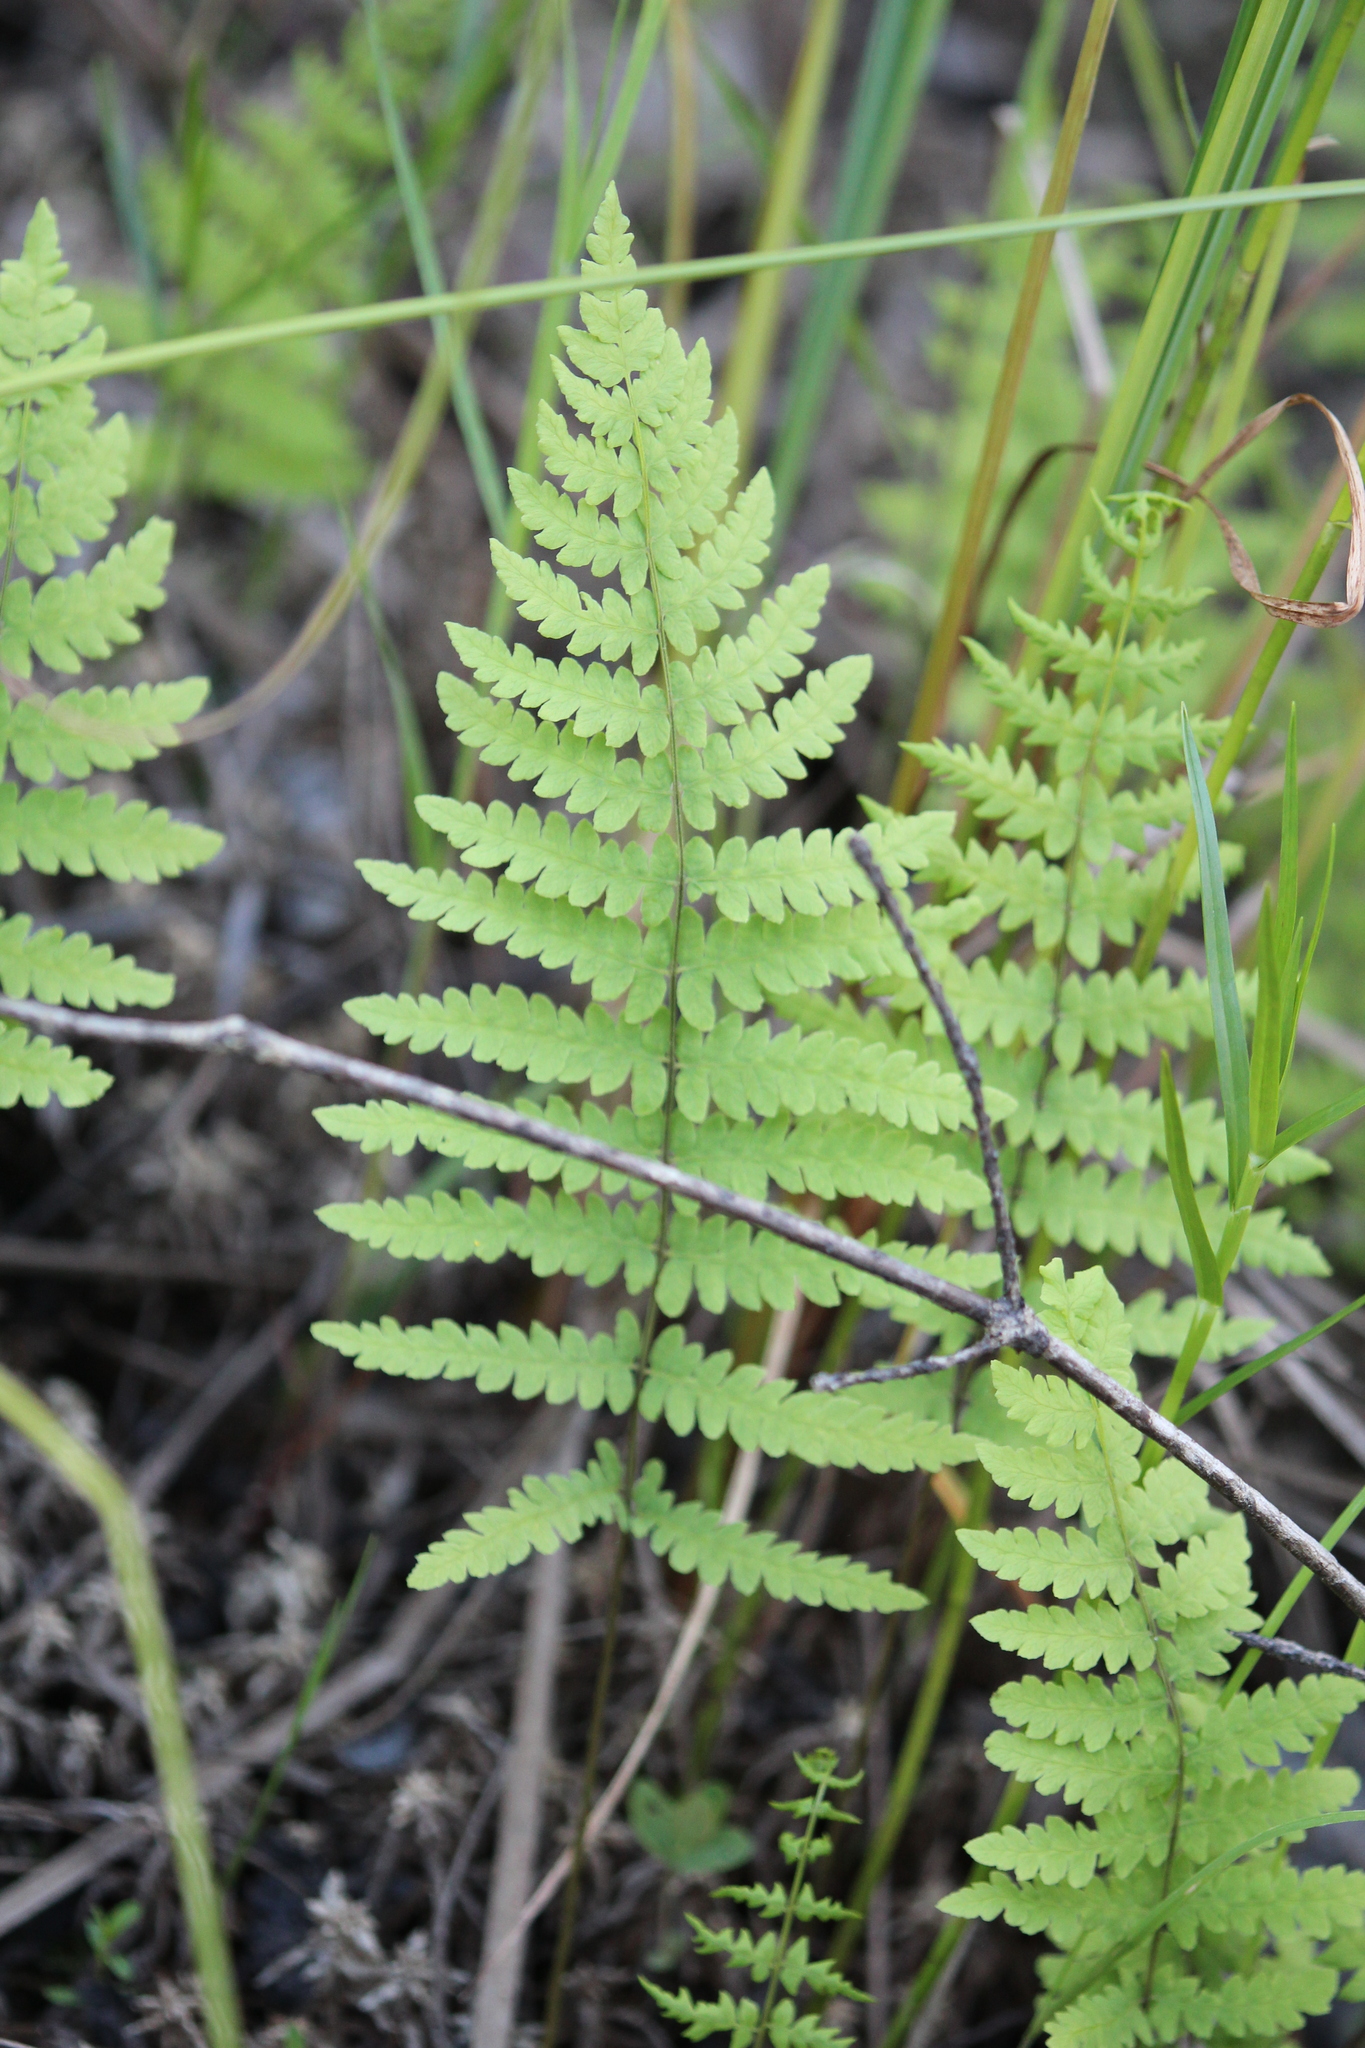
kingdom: Plantae
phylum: Tracheophyta
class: Polypodiopsida
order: Polypodiales
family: Thelypteridaceae
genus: Thelypteris
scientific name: Thelypteris palustris
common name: Marsh fern
